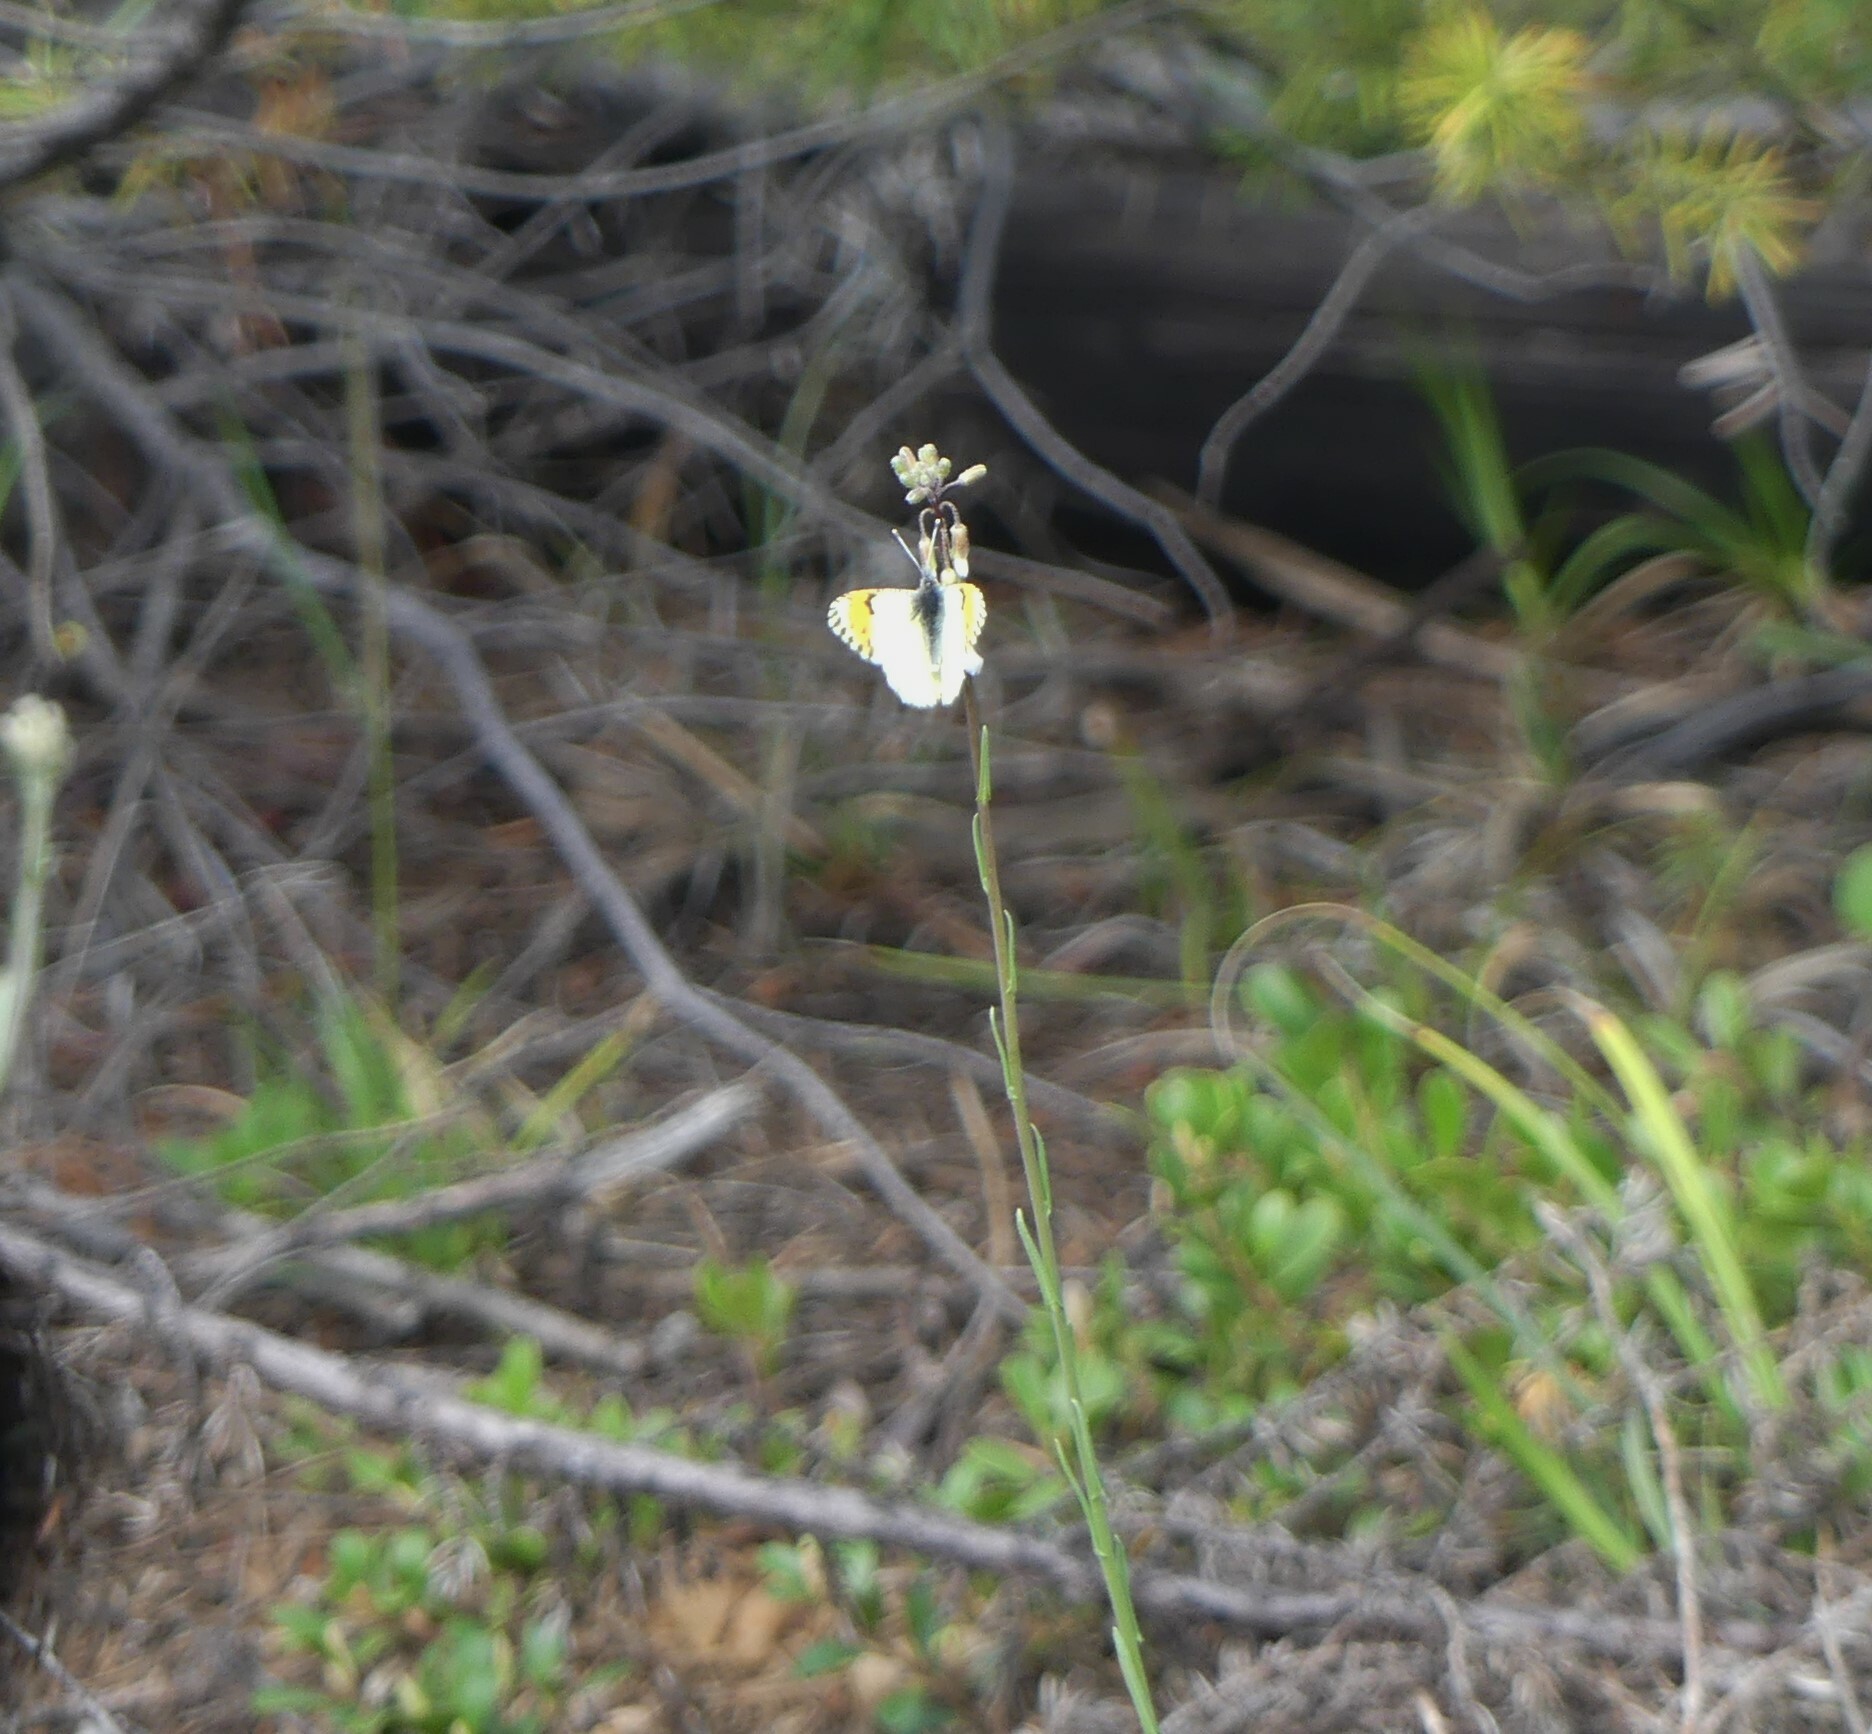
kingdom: Animalia
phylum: Arthropoda
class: Insecta
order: Lepidoptera
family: Pieridae
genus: Anthocharis
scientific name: Anthocharis julia
